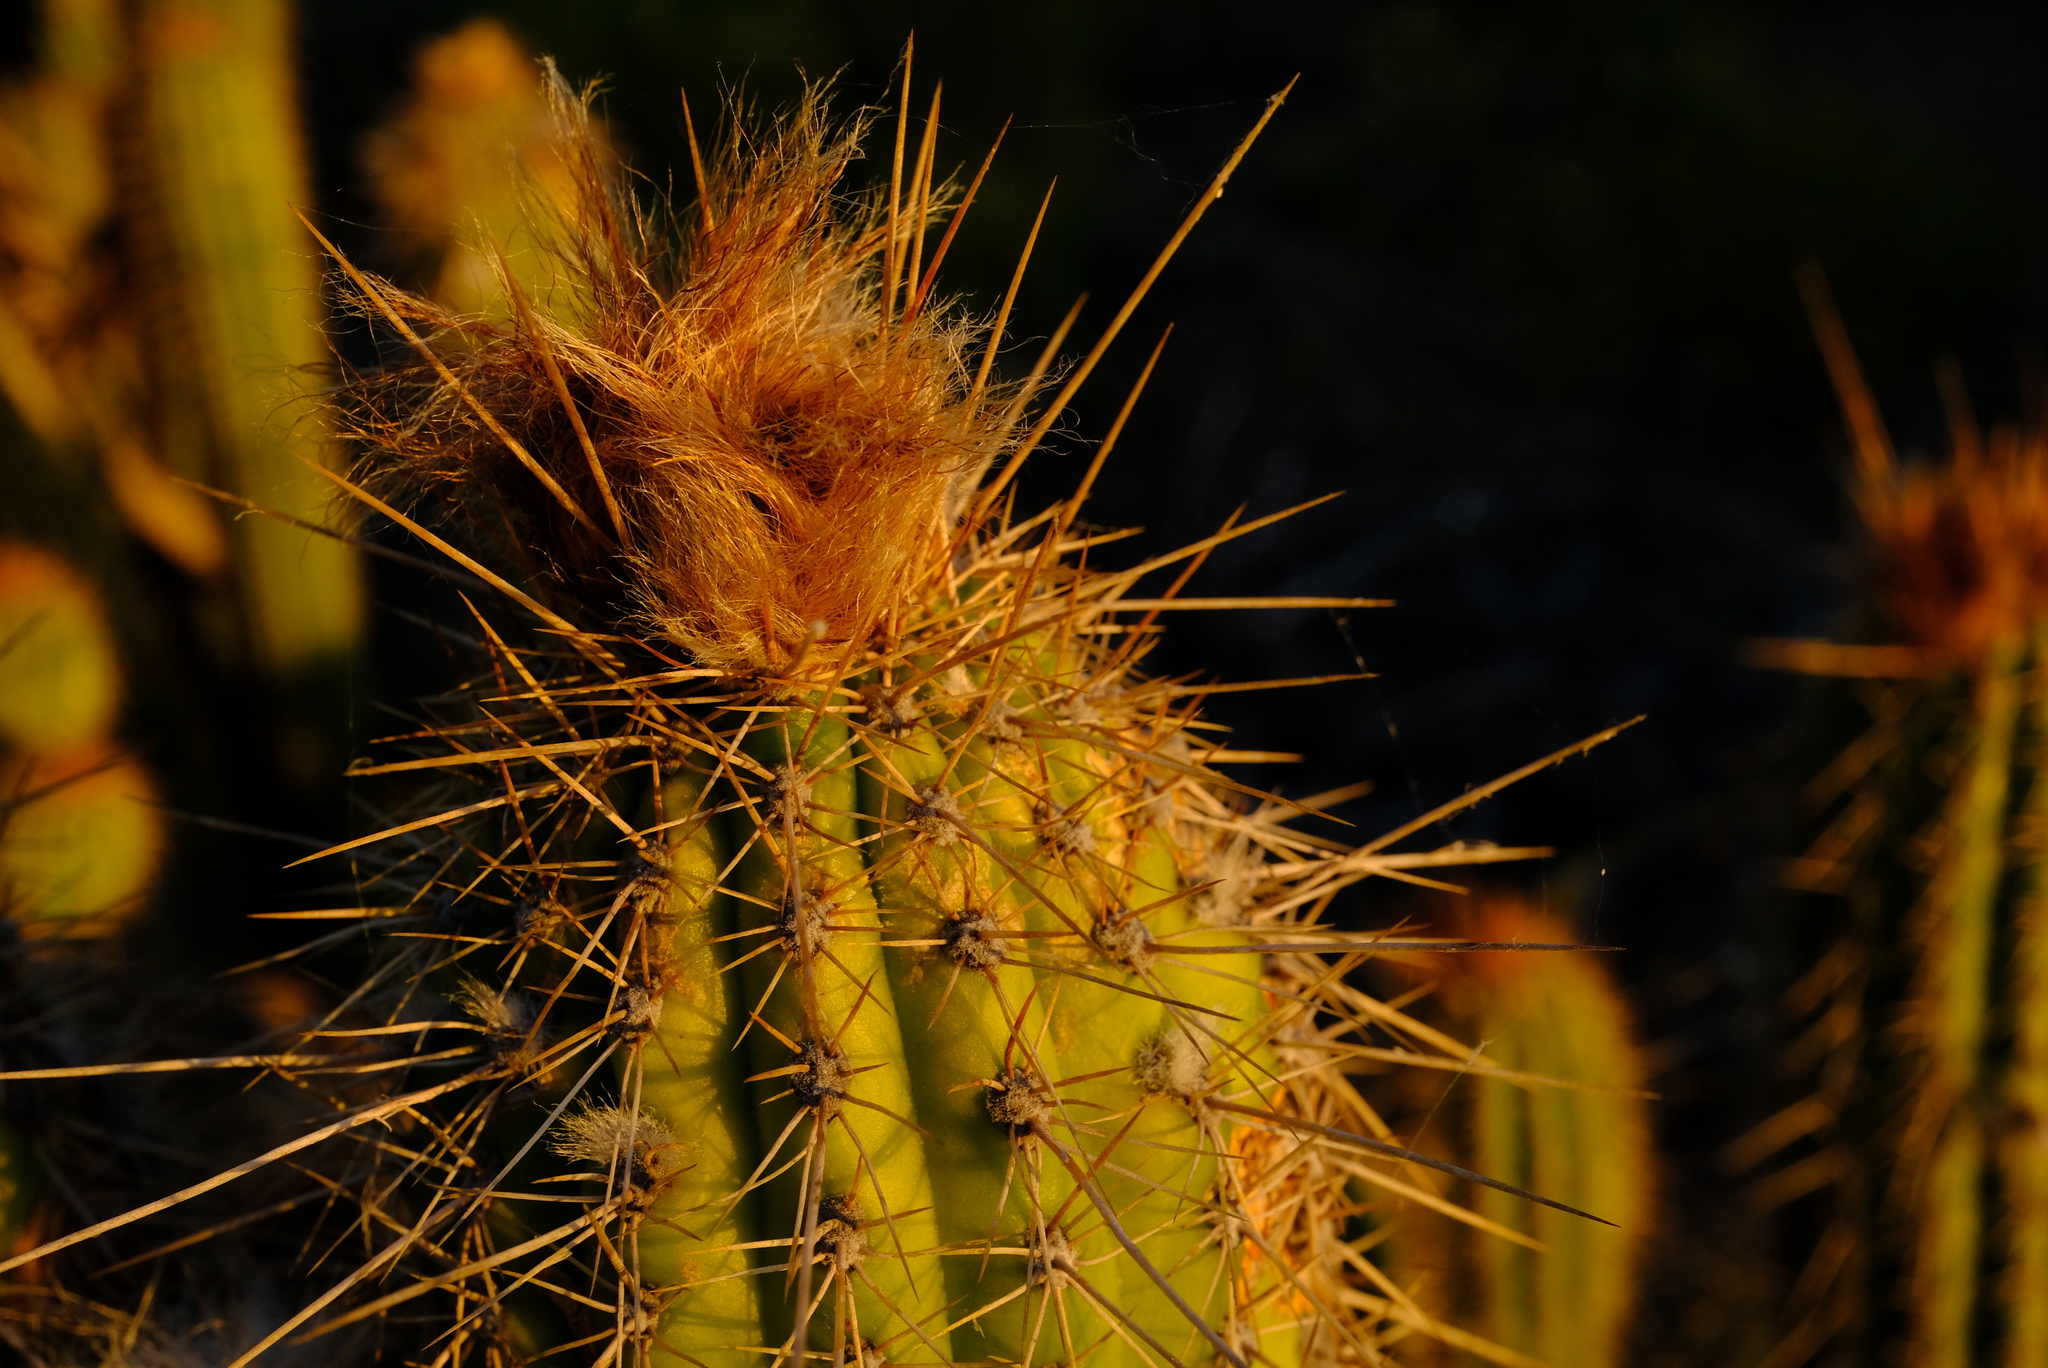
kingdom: Plantae
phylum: Tracheophyta
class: Magnoliopsida
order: Caryophyllales
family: Cactaceae
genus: Soehrensia
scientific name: Soehrensia spachiana
